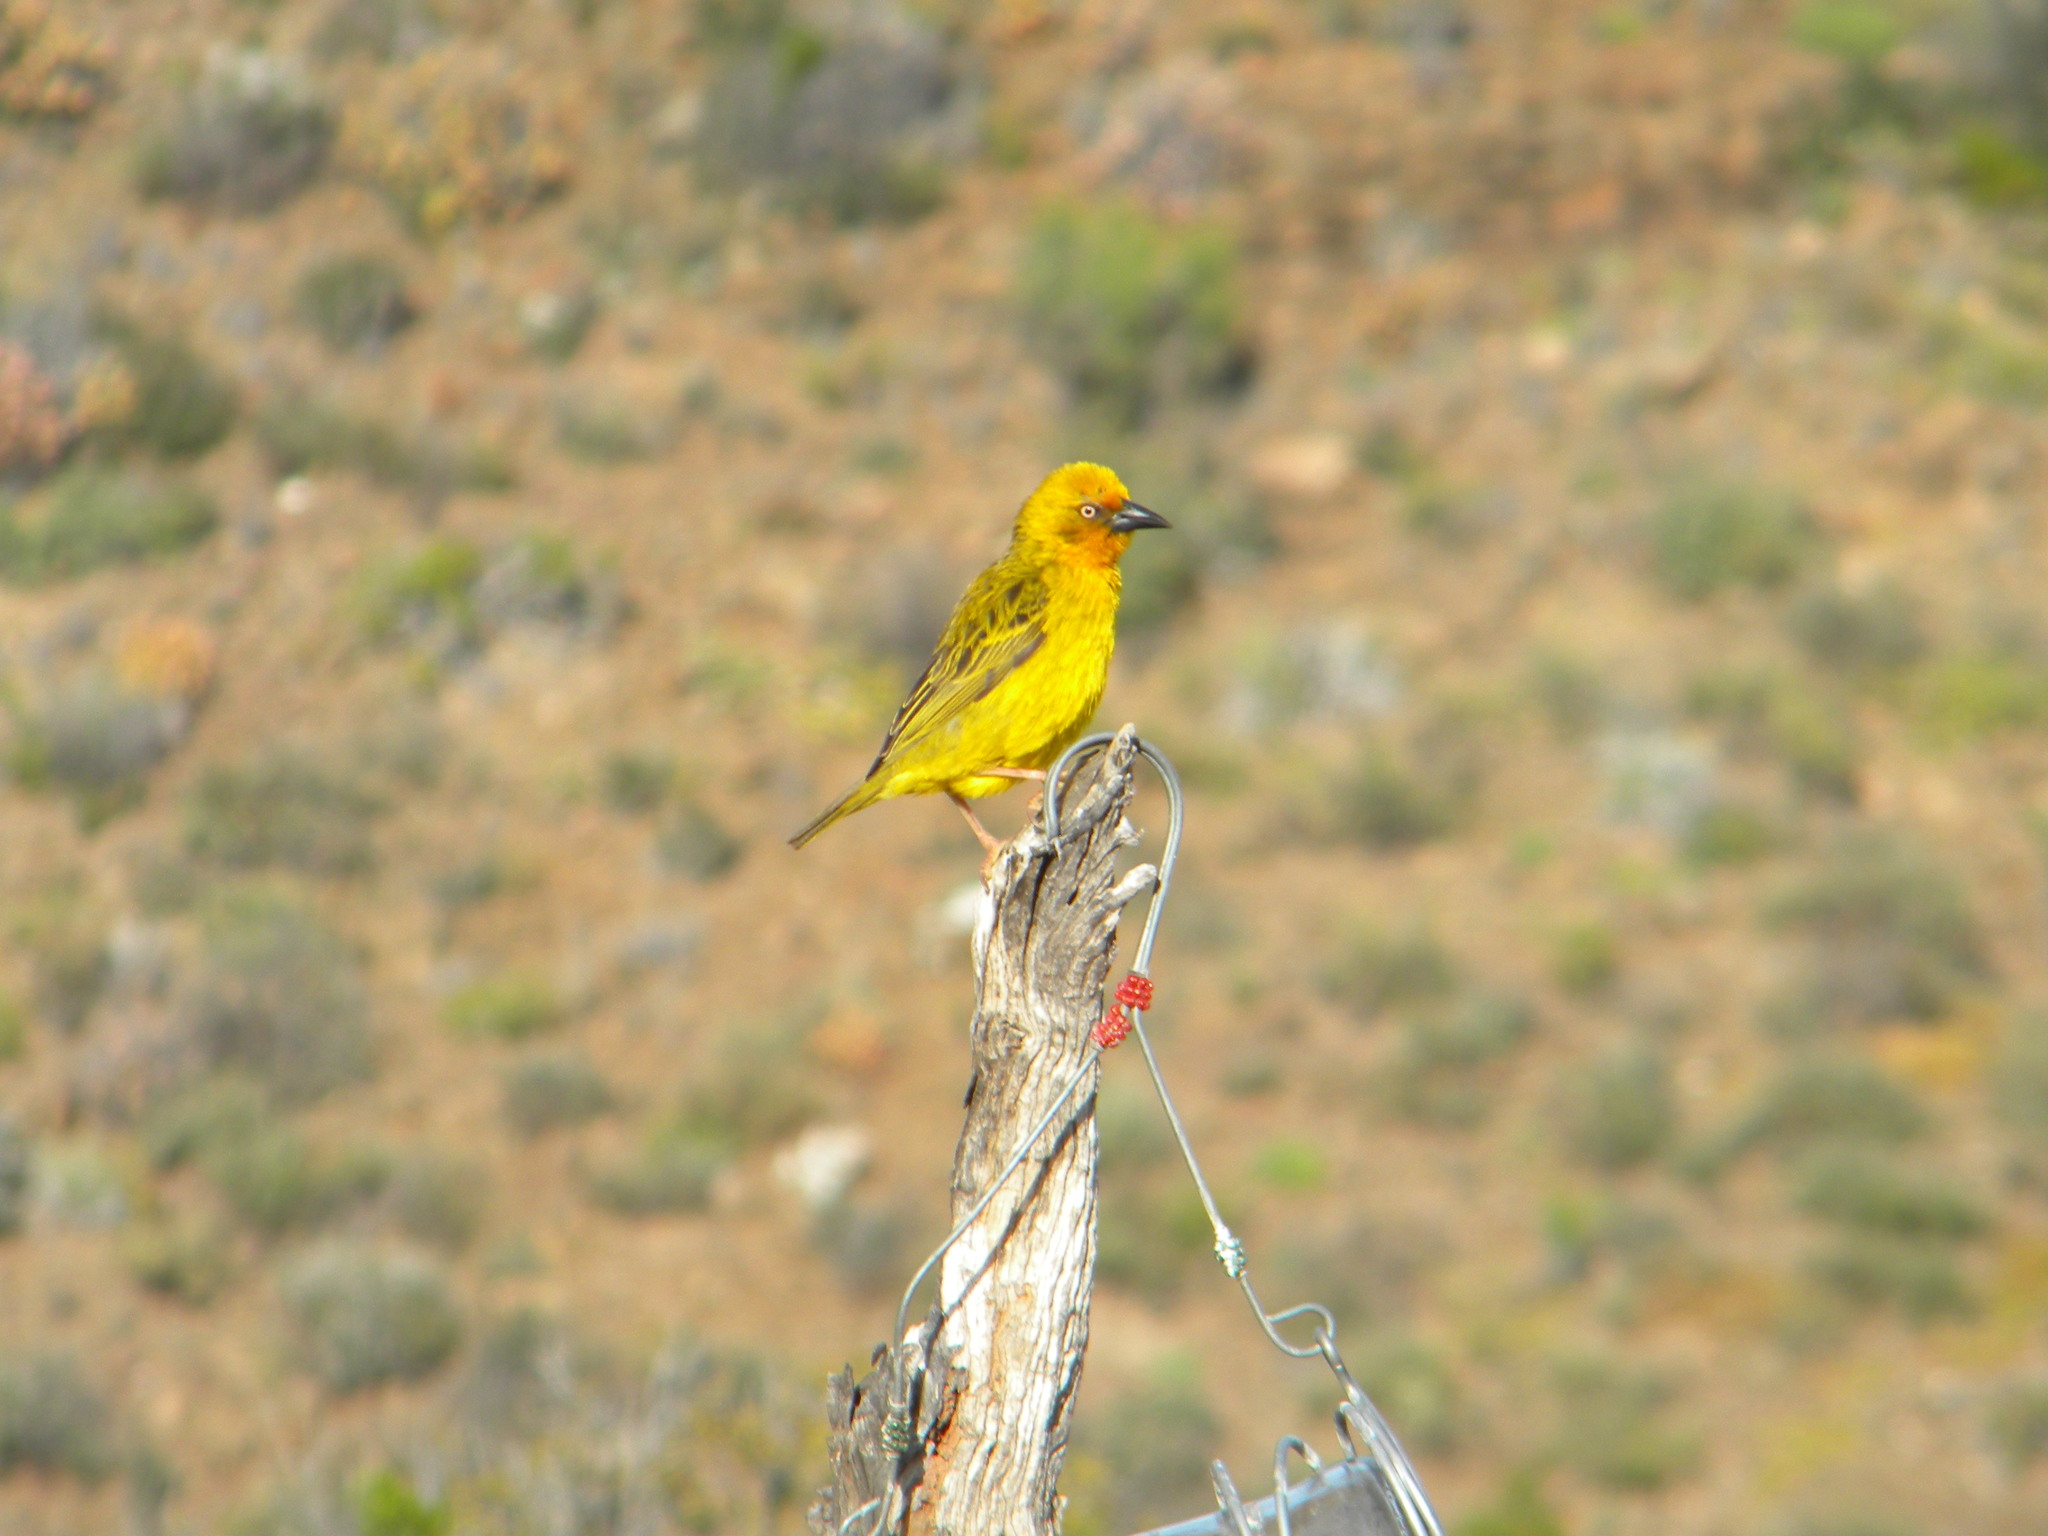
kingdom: Animalia
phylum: Chordata
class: Aves
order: Passeriformes
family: Ploceidae
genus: Ploceus
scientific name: Ploceus capensis
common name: Cape weaver
